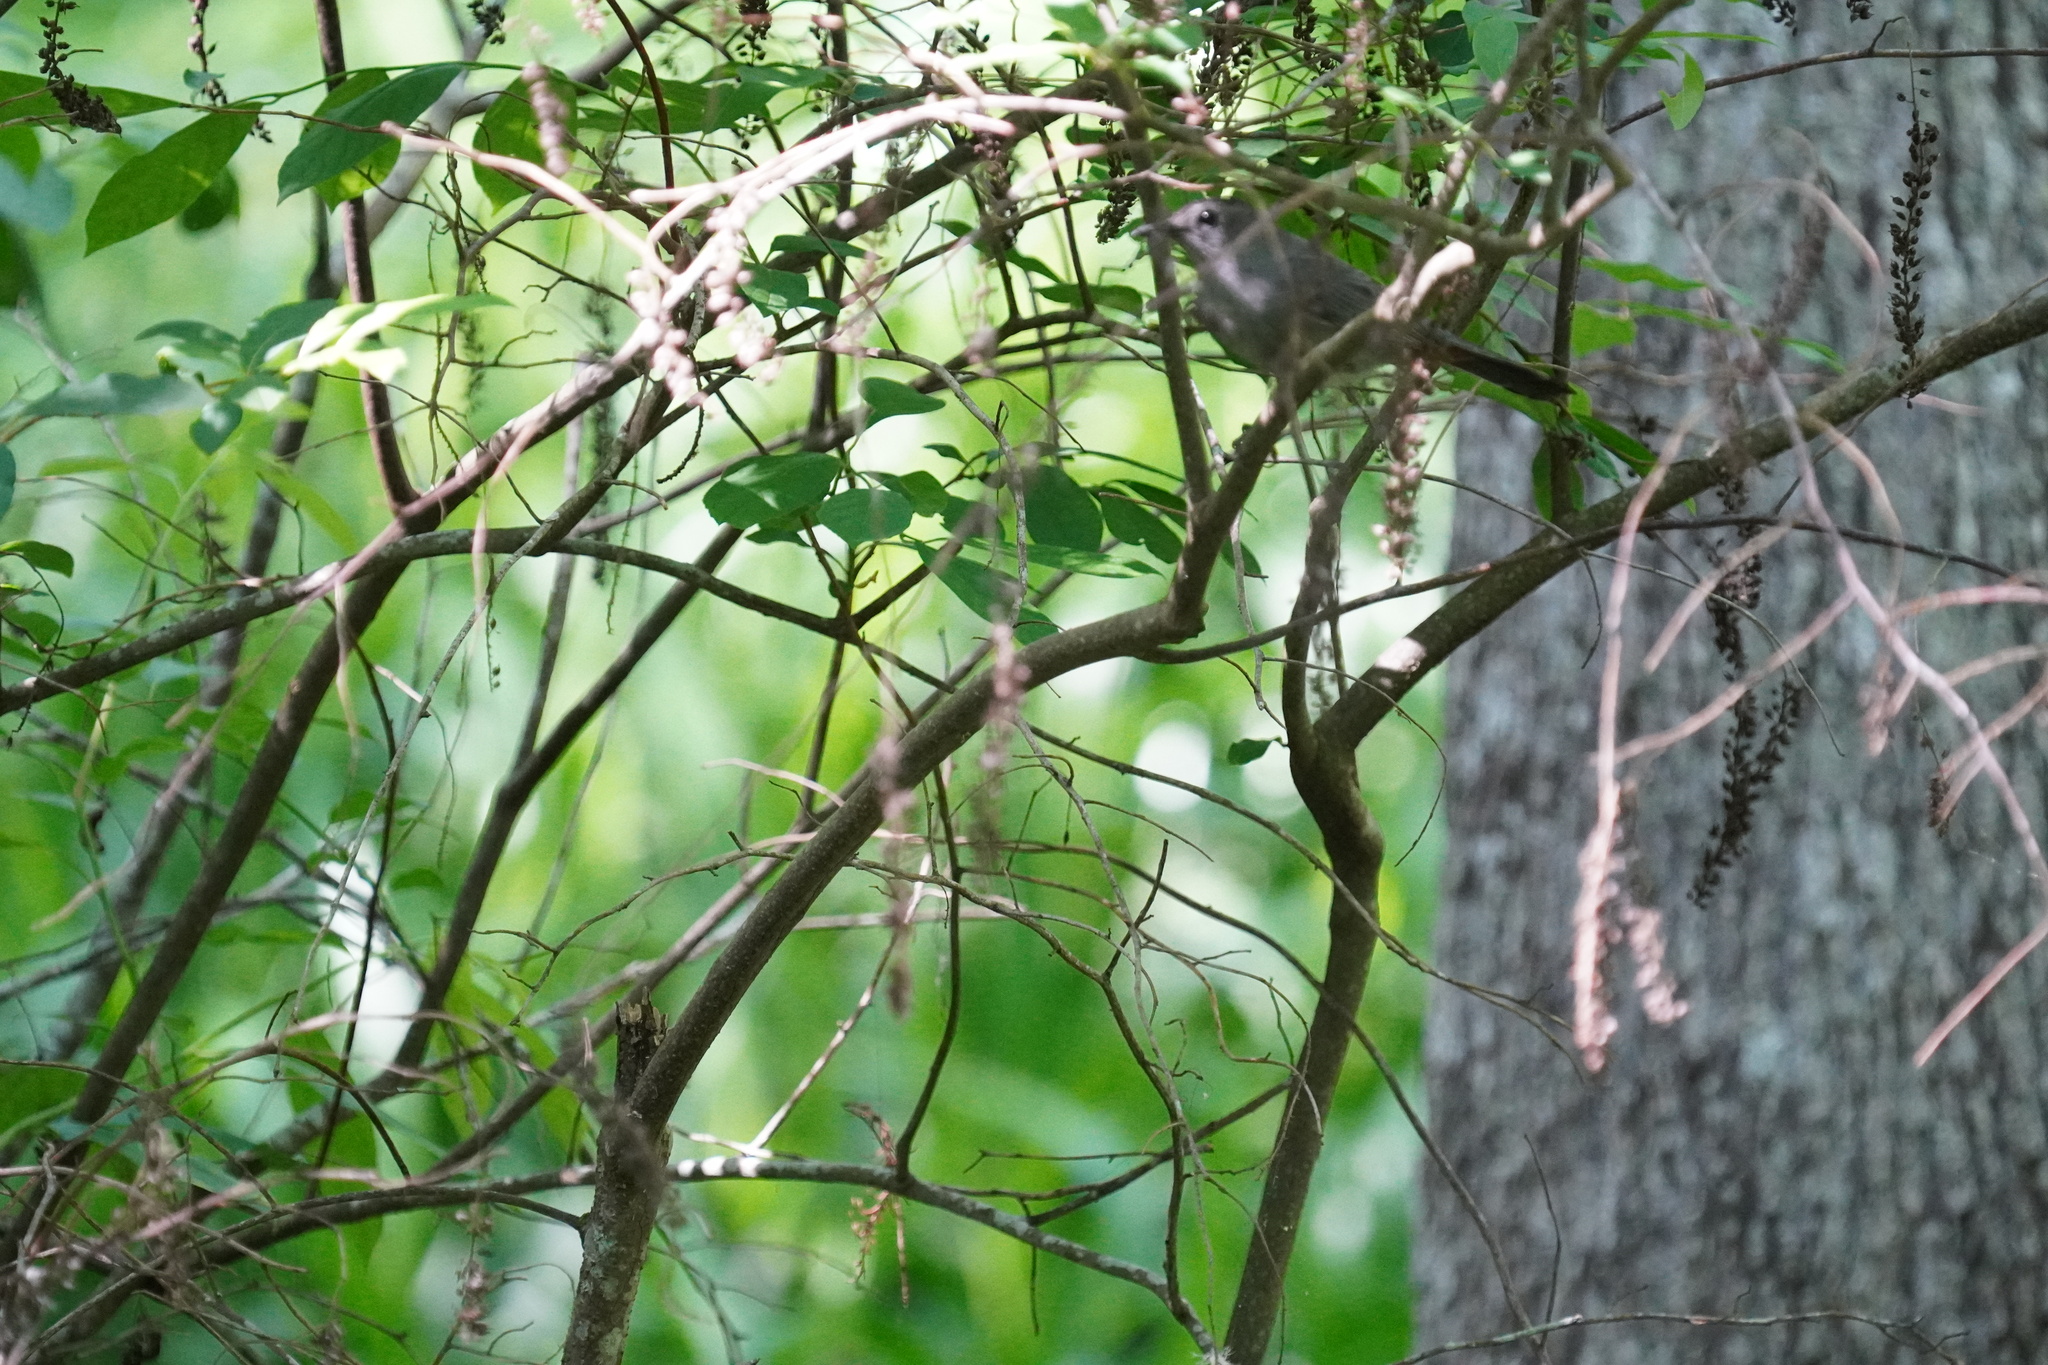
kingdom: Animalia
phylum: Chordata
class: Aves
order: Passeriformes
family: Mimidae
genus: Dumetella
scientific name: Dumetella carolinensis
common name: Gray catbird
